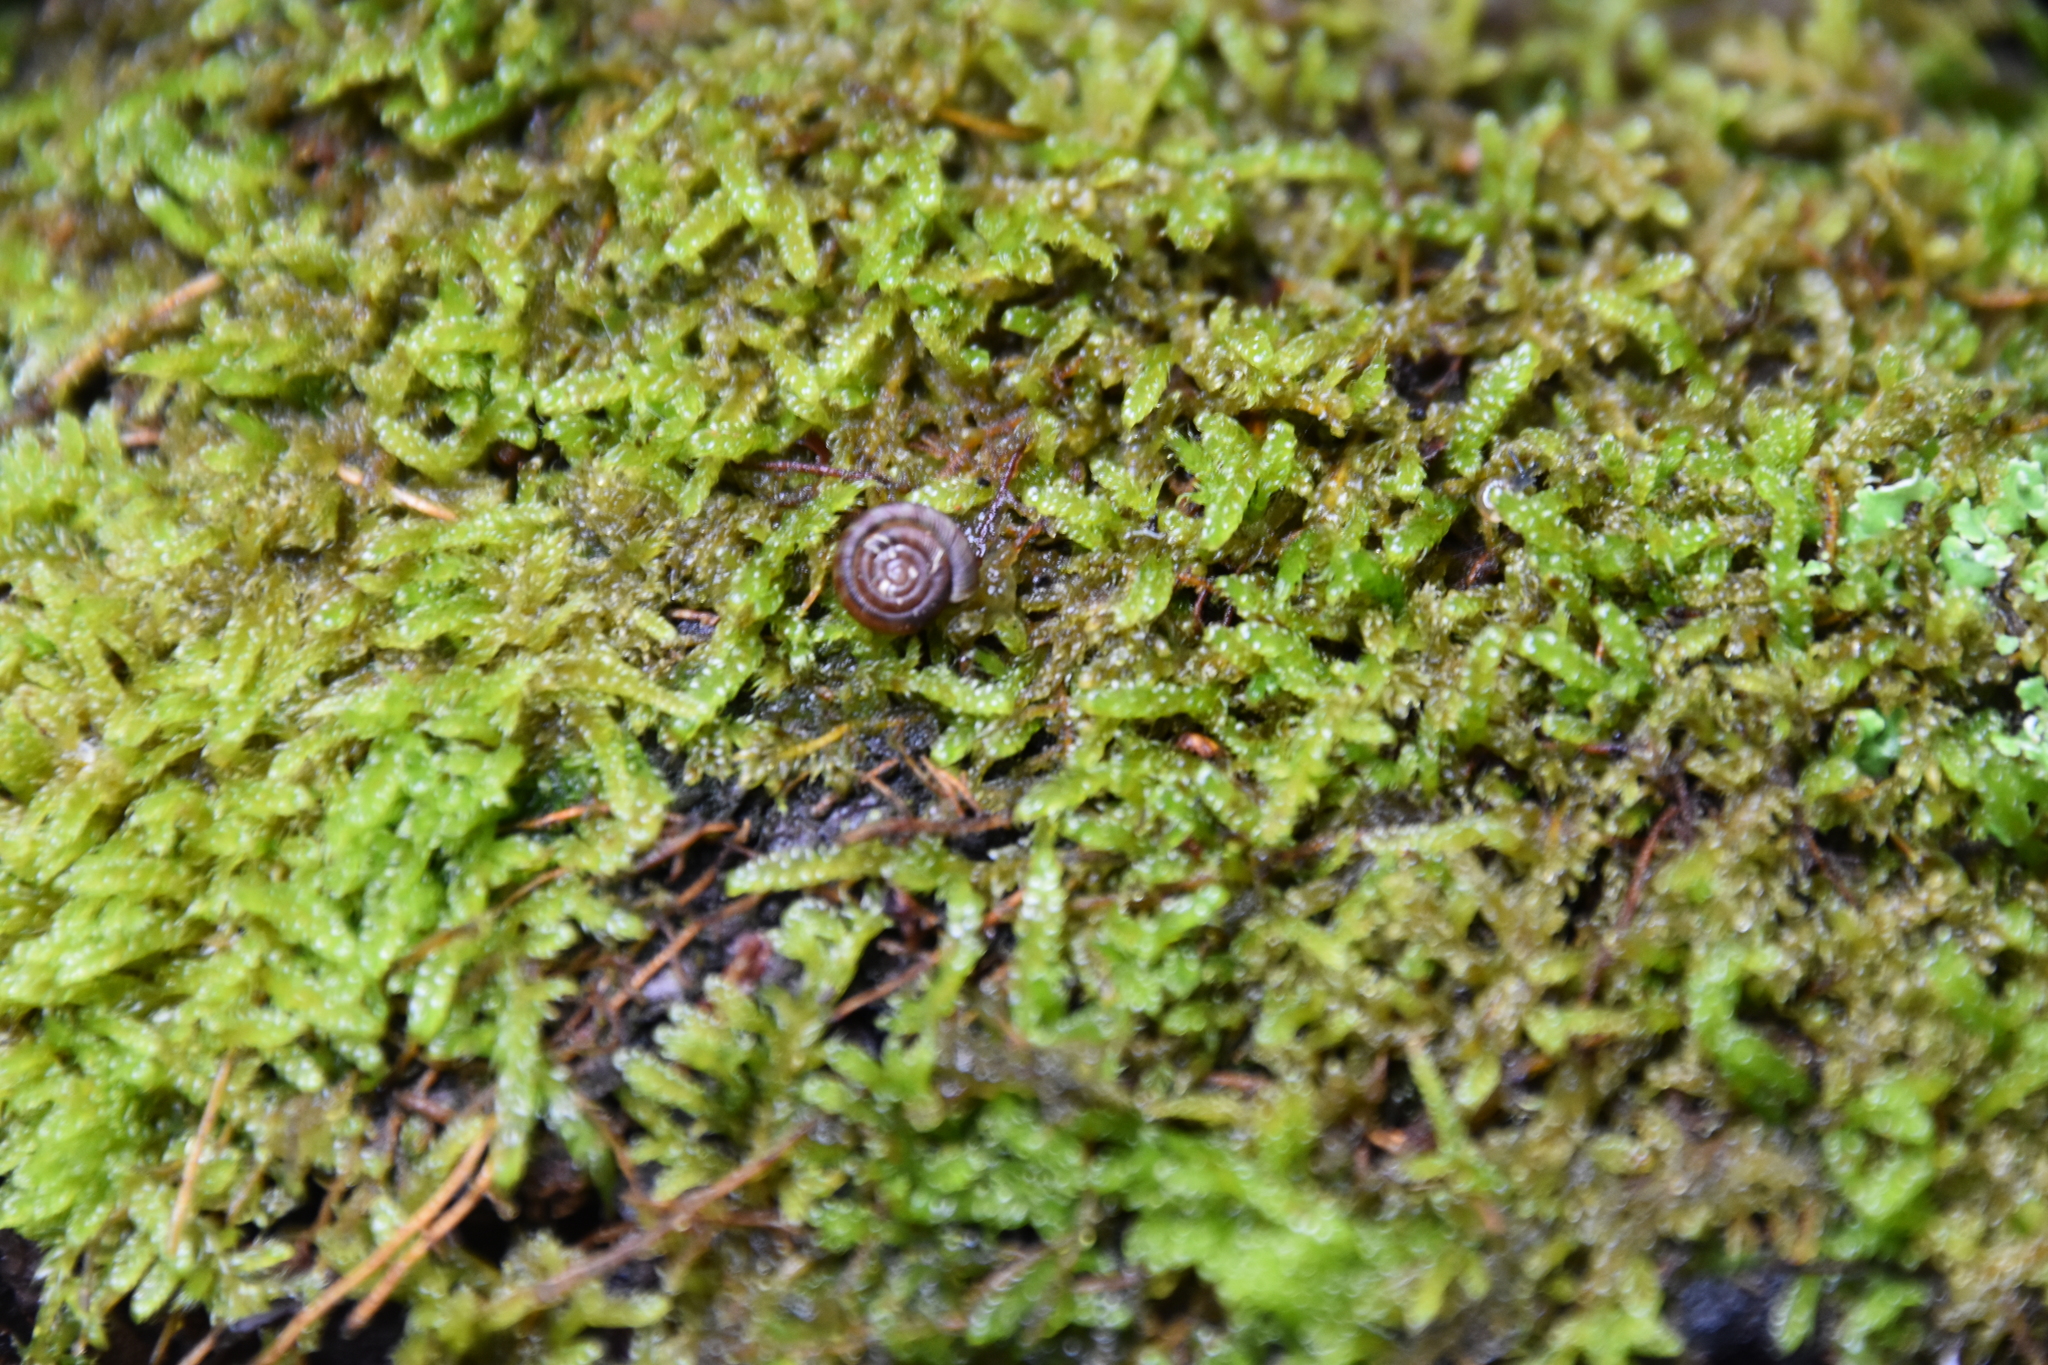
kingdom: Animalia
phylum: Mollusca
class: Gastropoda
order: Stylommatophora
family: Discidae
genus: Discus
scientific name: Discus rotundatus
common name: Rounded snail
